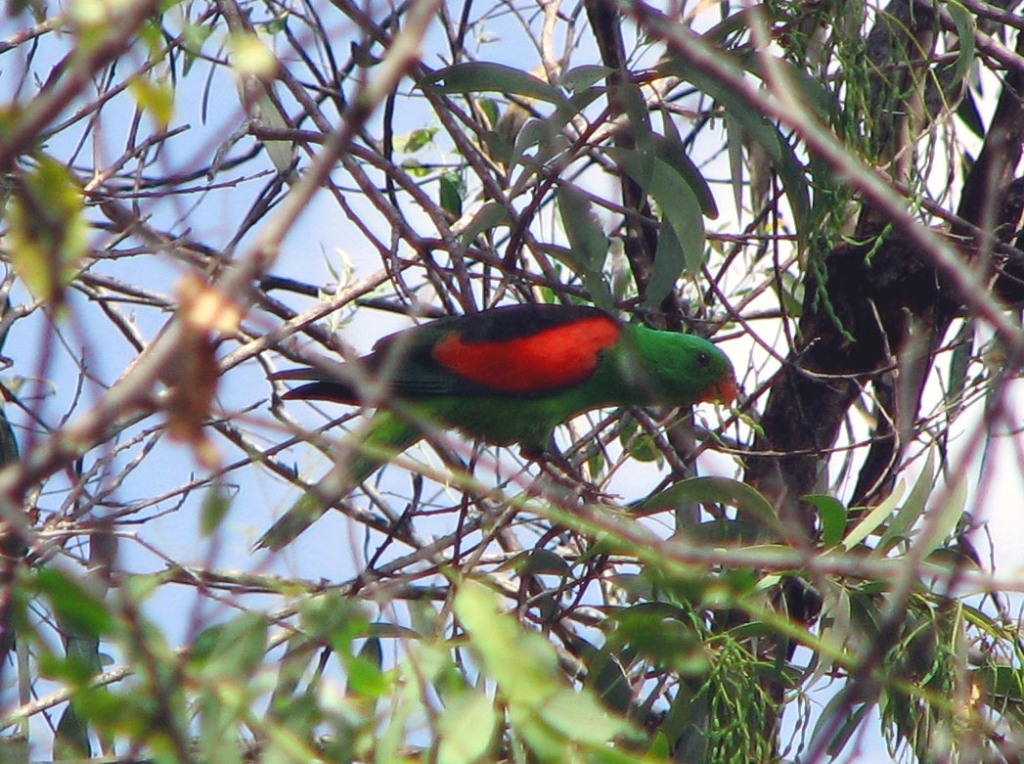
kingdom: Animalia
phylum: Chordata
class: Aves
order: Psittaciformes
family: Psittacidae
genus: Aprosmictus
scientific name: Aprosmictus erythropterus
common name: Red-winged parrot
